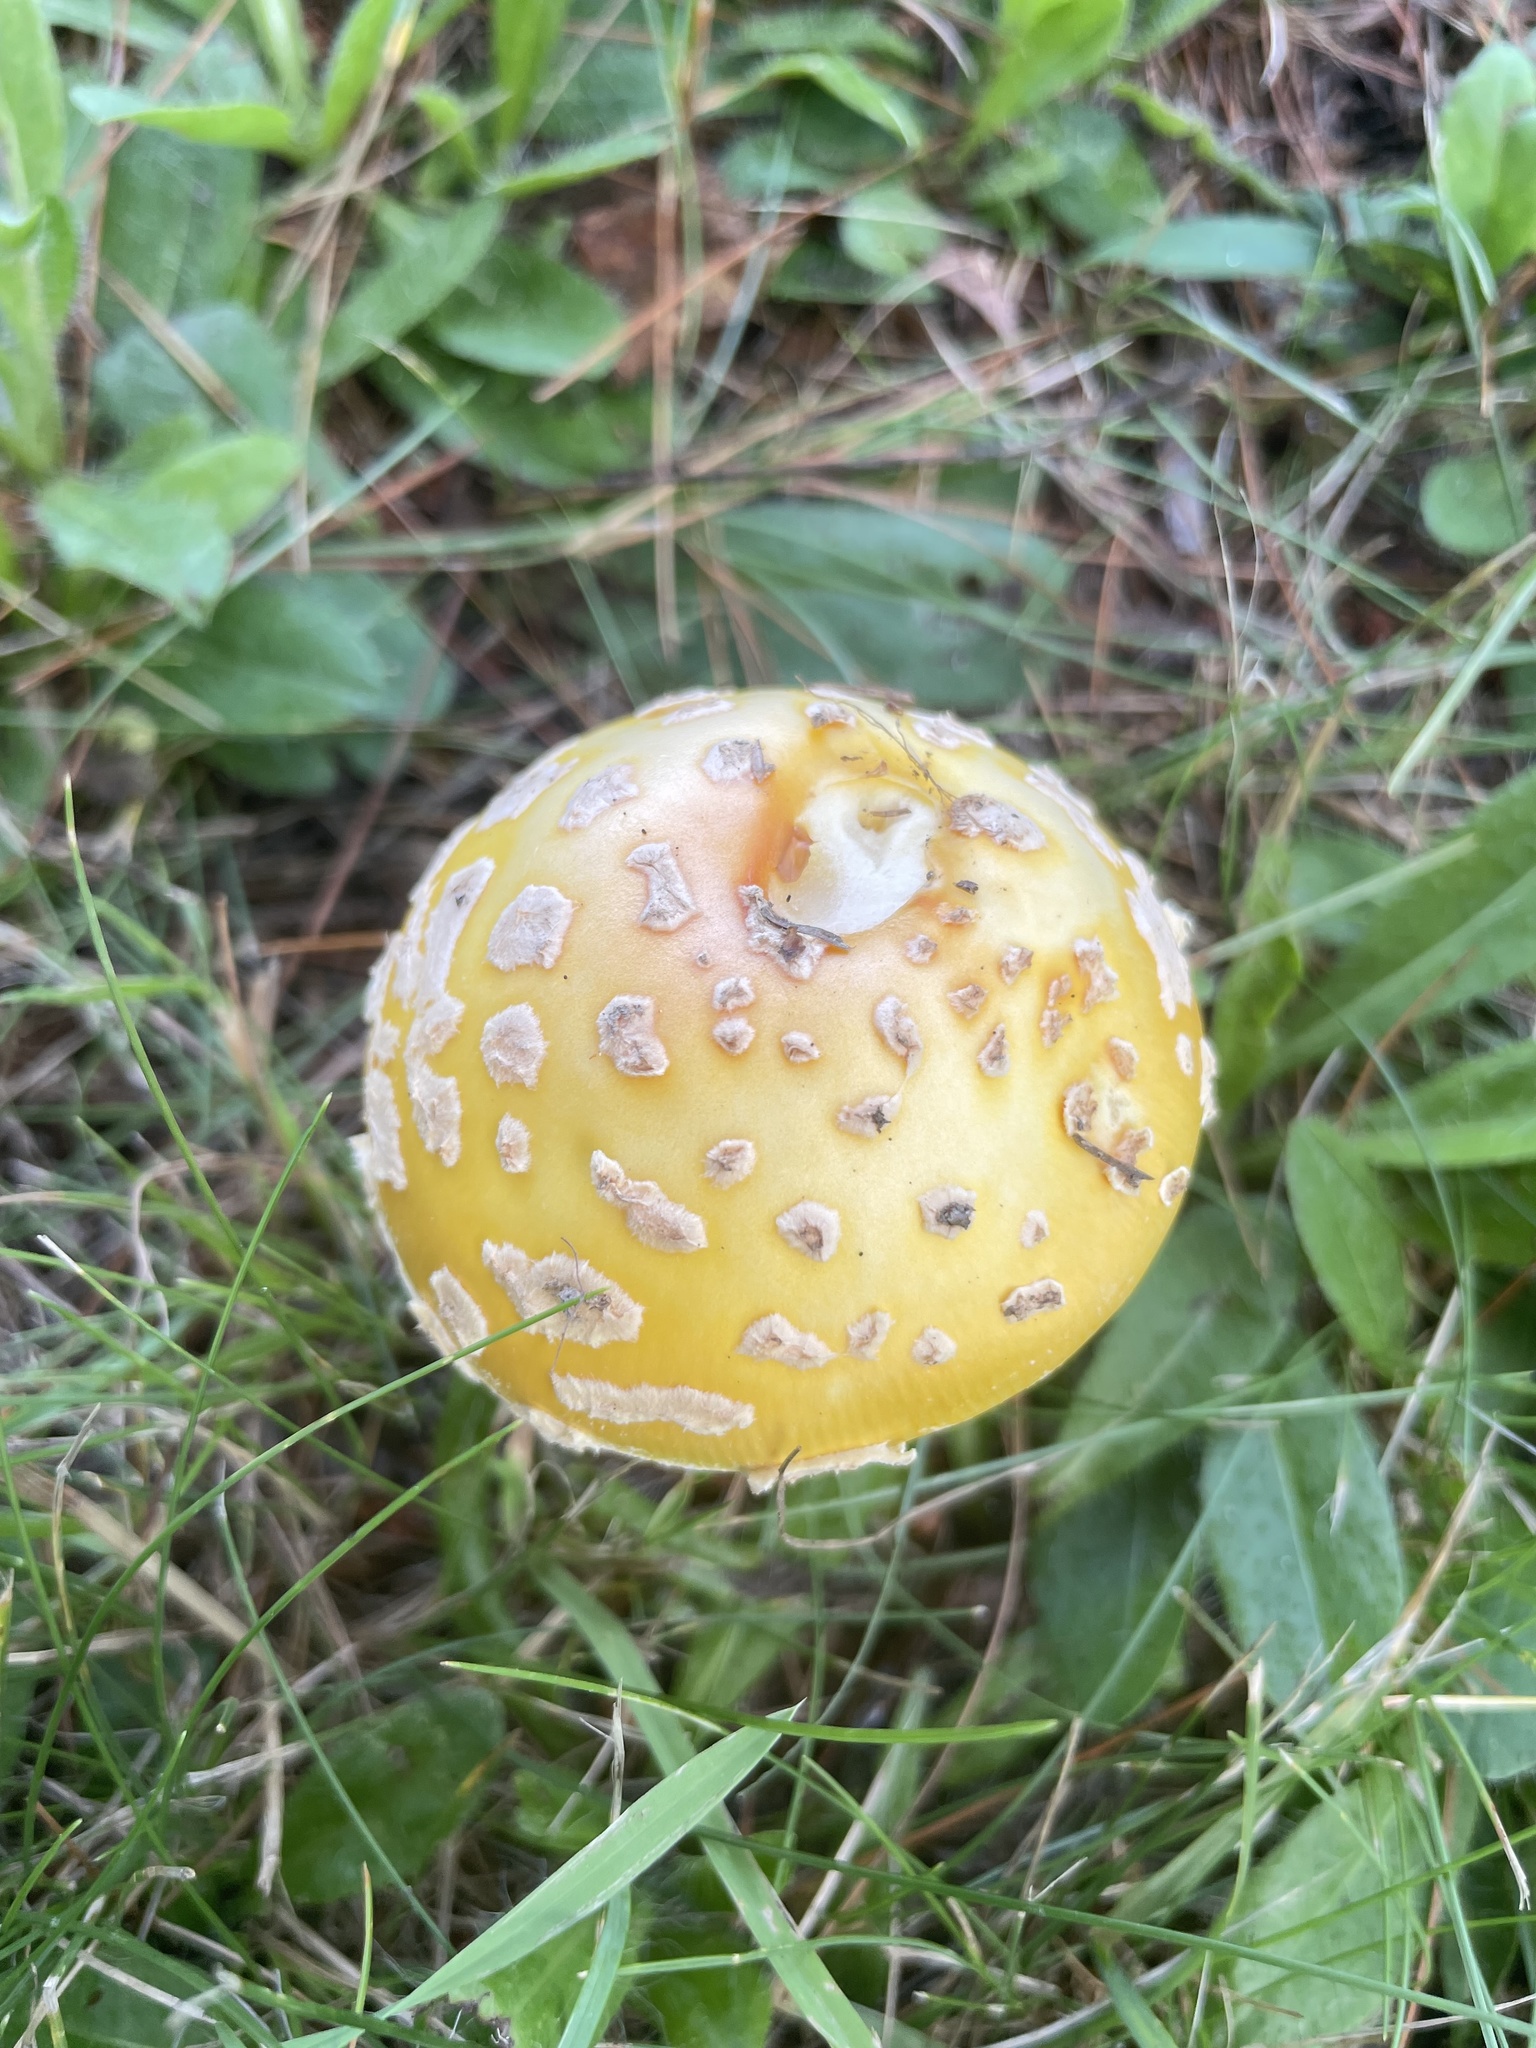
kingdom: Fungi
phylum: Basidiomycota
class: Agaricomycetes
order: Agaricales
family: Amanitaceae
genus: Amanita
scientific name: Amanita muscaria
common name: Fly agaric
